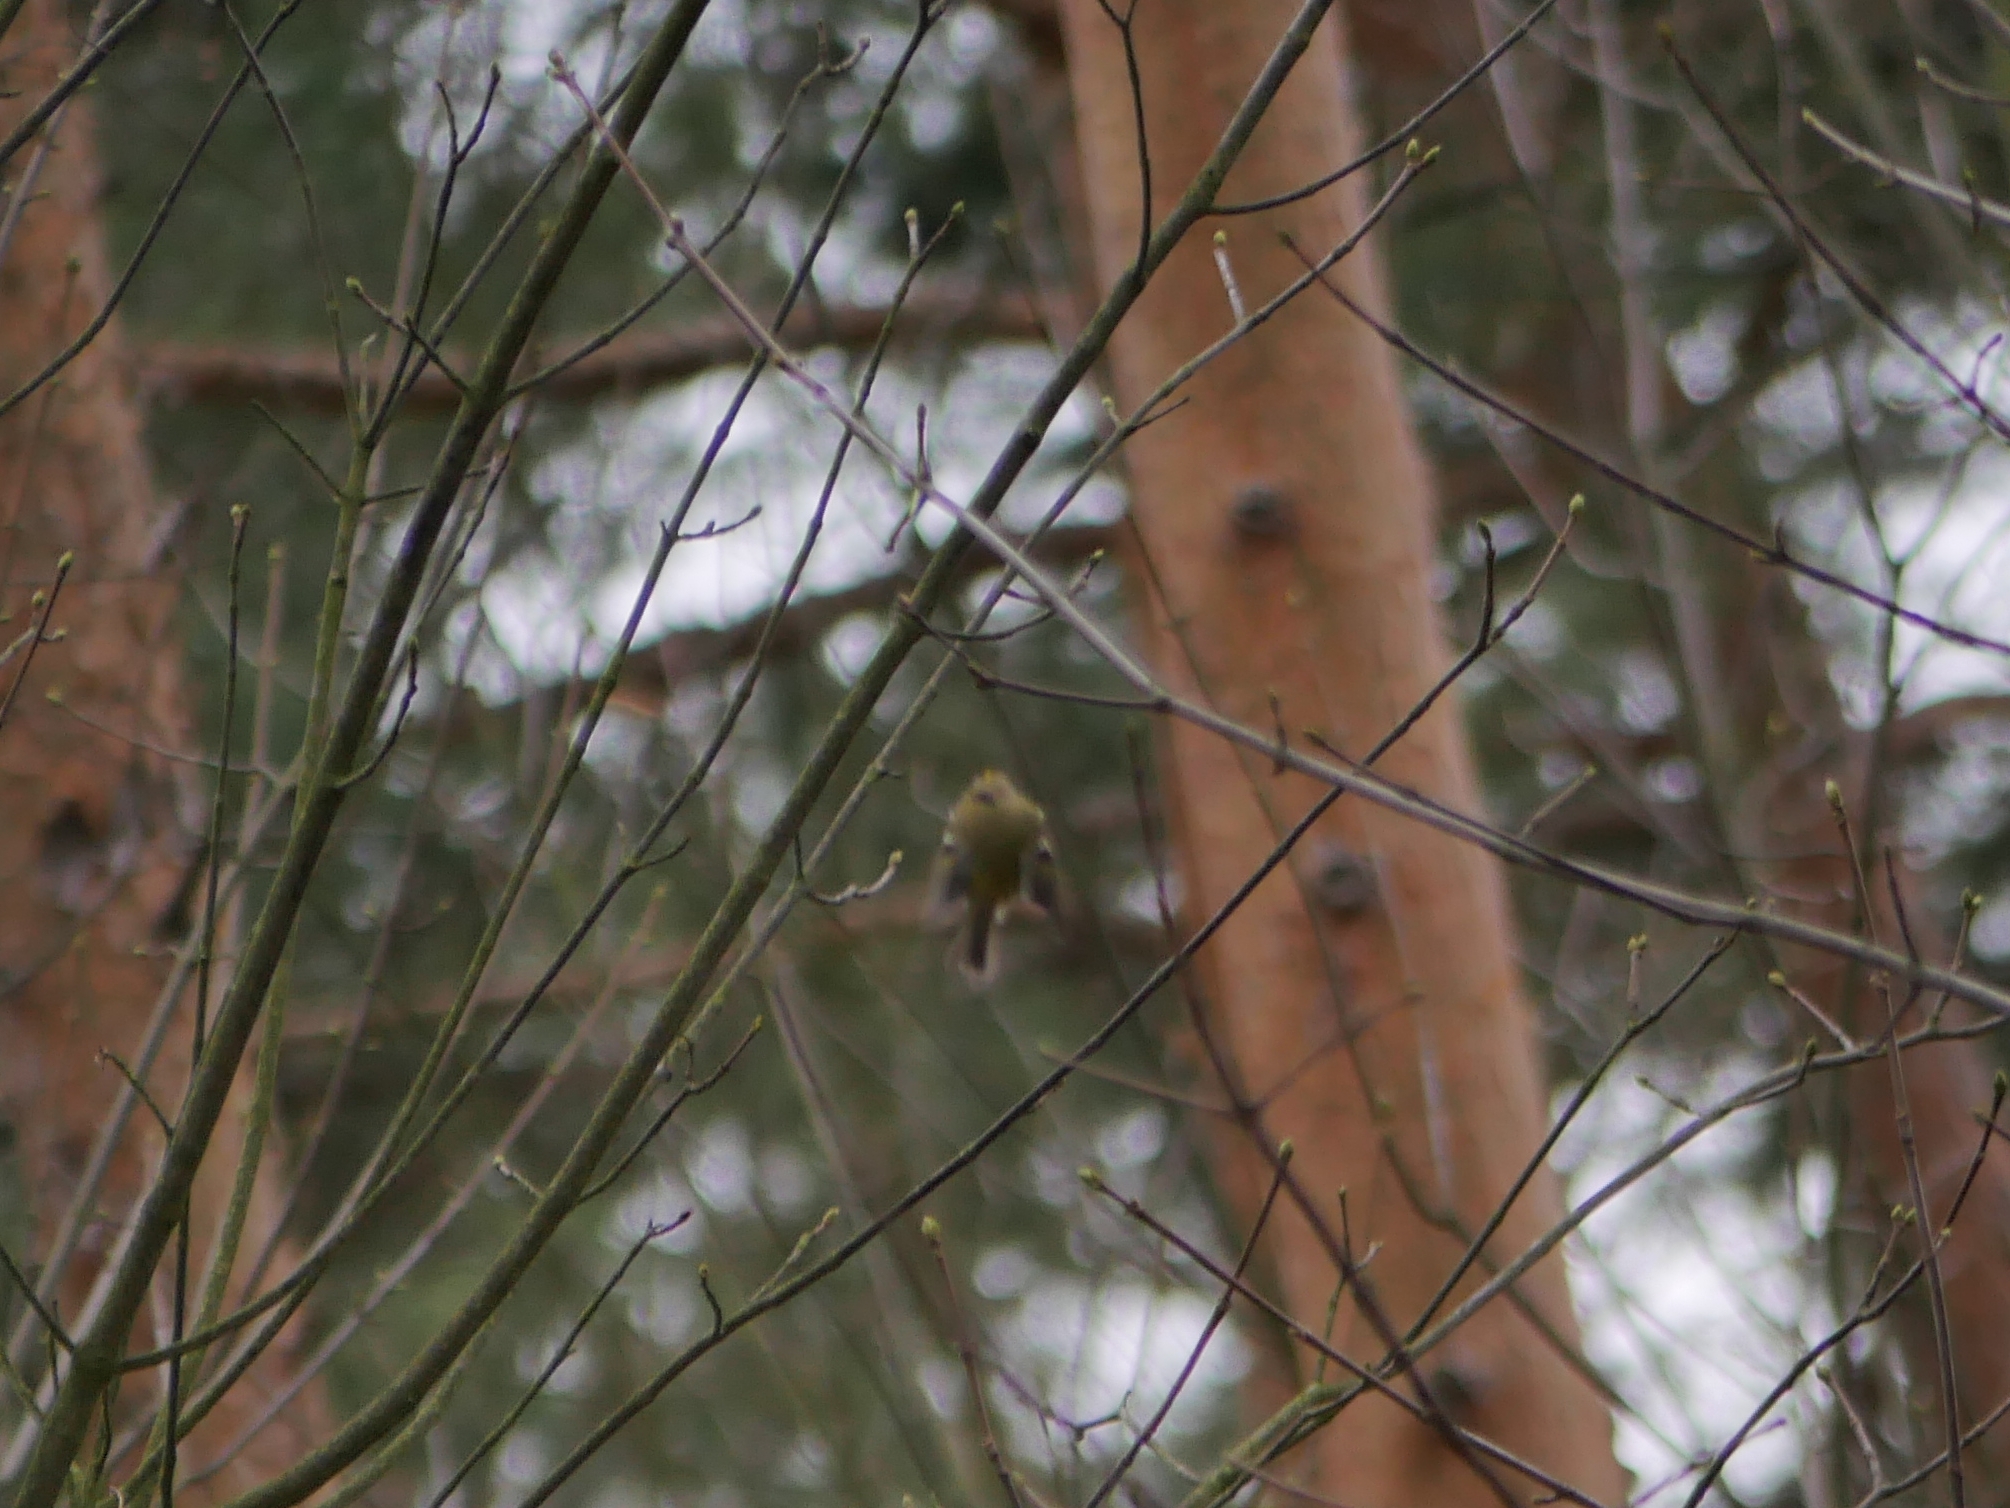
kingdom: Animalia
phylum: Chordata
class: Aves
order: Passeriformes
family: Regulidae
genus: Regulus
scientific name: Regulus regulus
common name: Goldcrest
